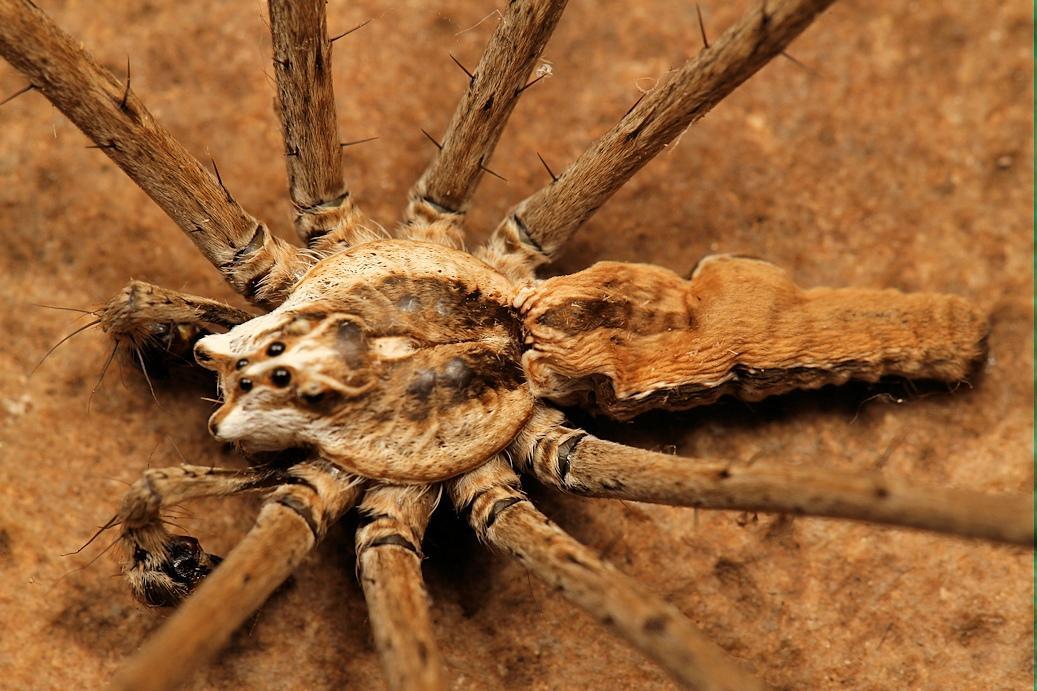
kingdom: Animalia
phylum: Arthropoda
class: Arachnida
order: Araneae
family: Pisauridae
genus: Euprosthenops
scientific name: Euprosthenops bayaonianus
